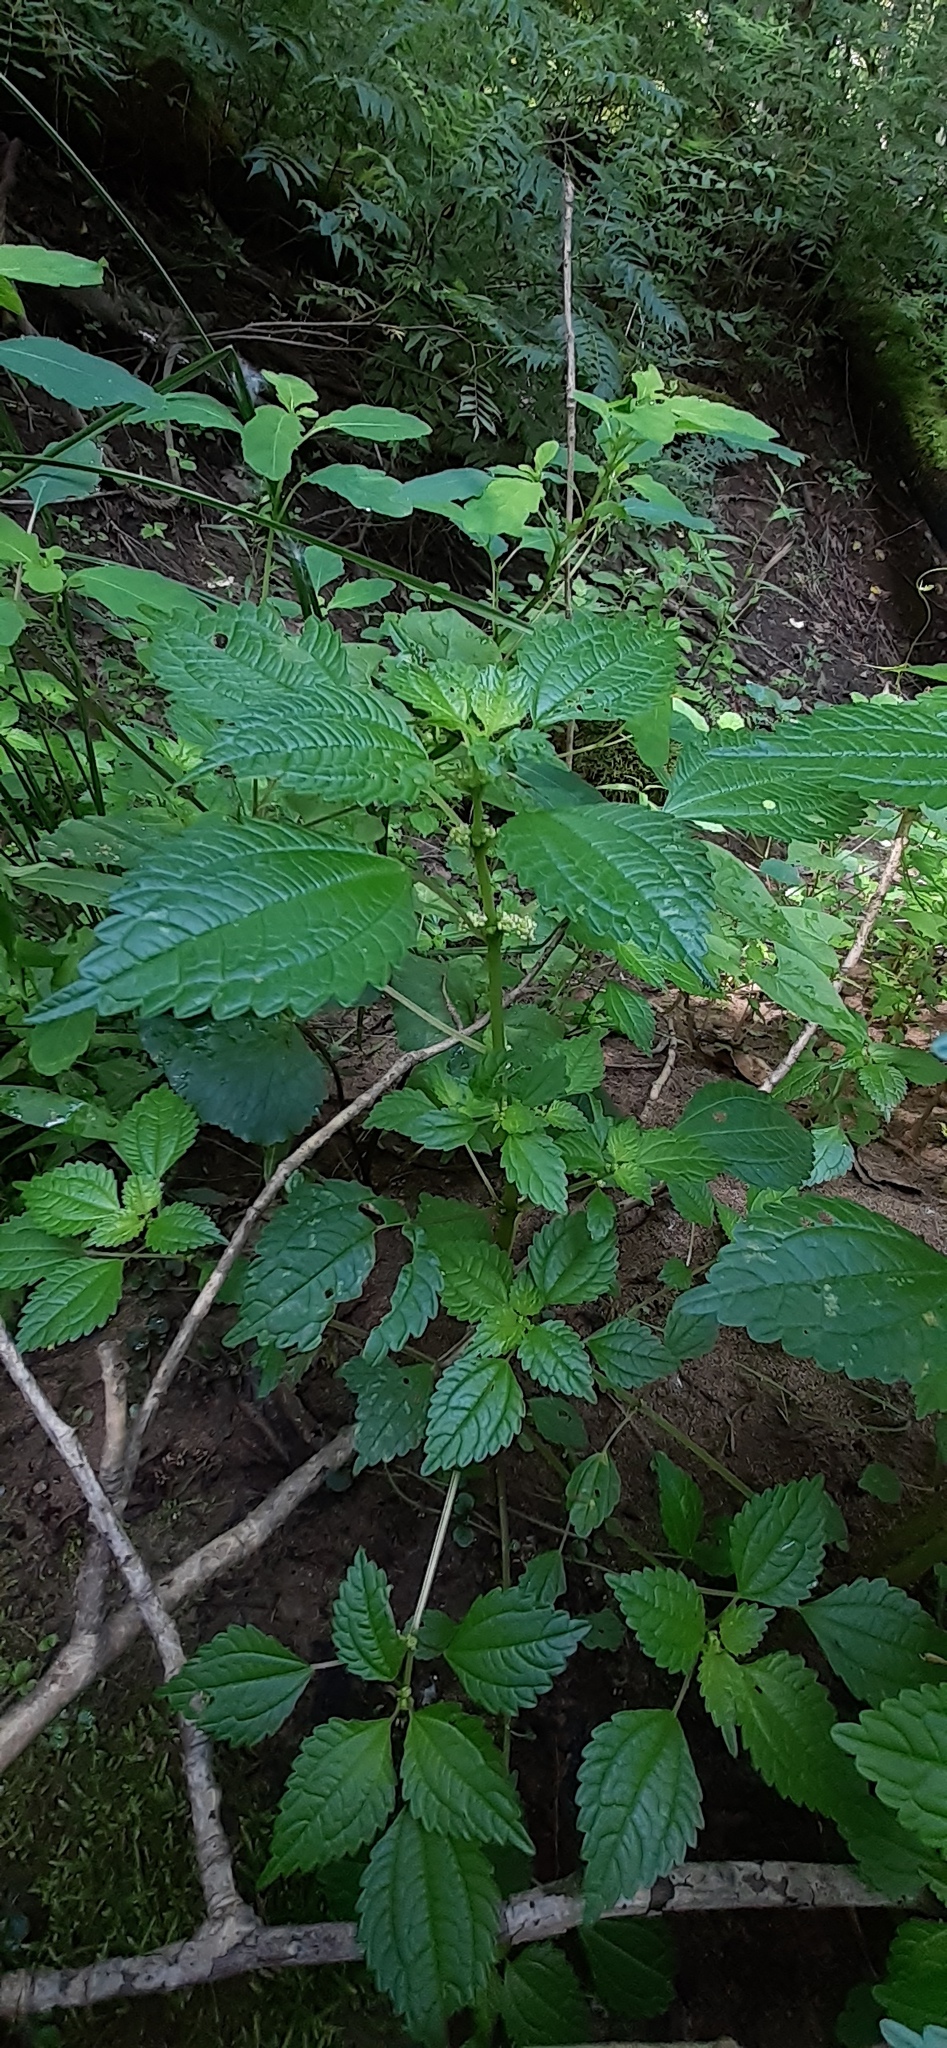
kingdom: Plantae
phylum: Tracheophyta
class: Magnoliopsida
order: Rosales
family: Urticaceae
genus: Pilea
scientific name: Pilea pumila
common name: Clearweed
